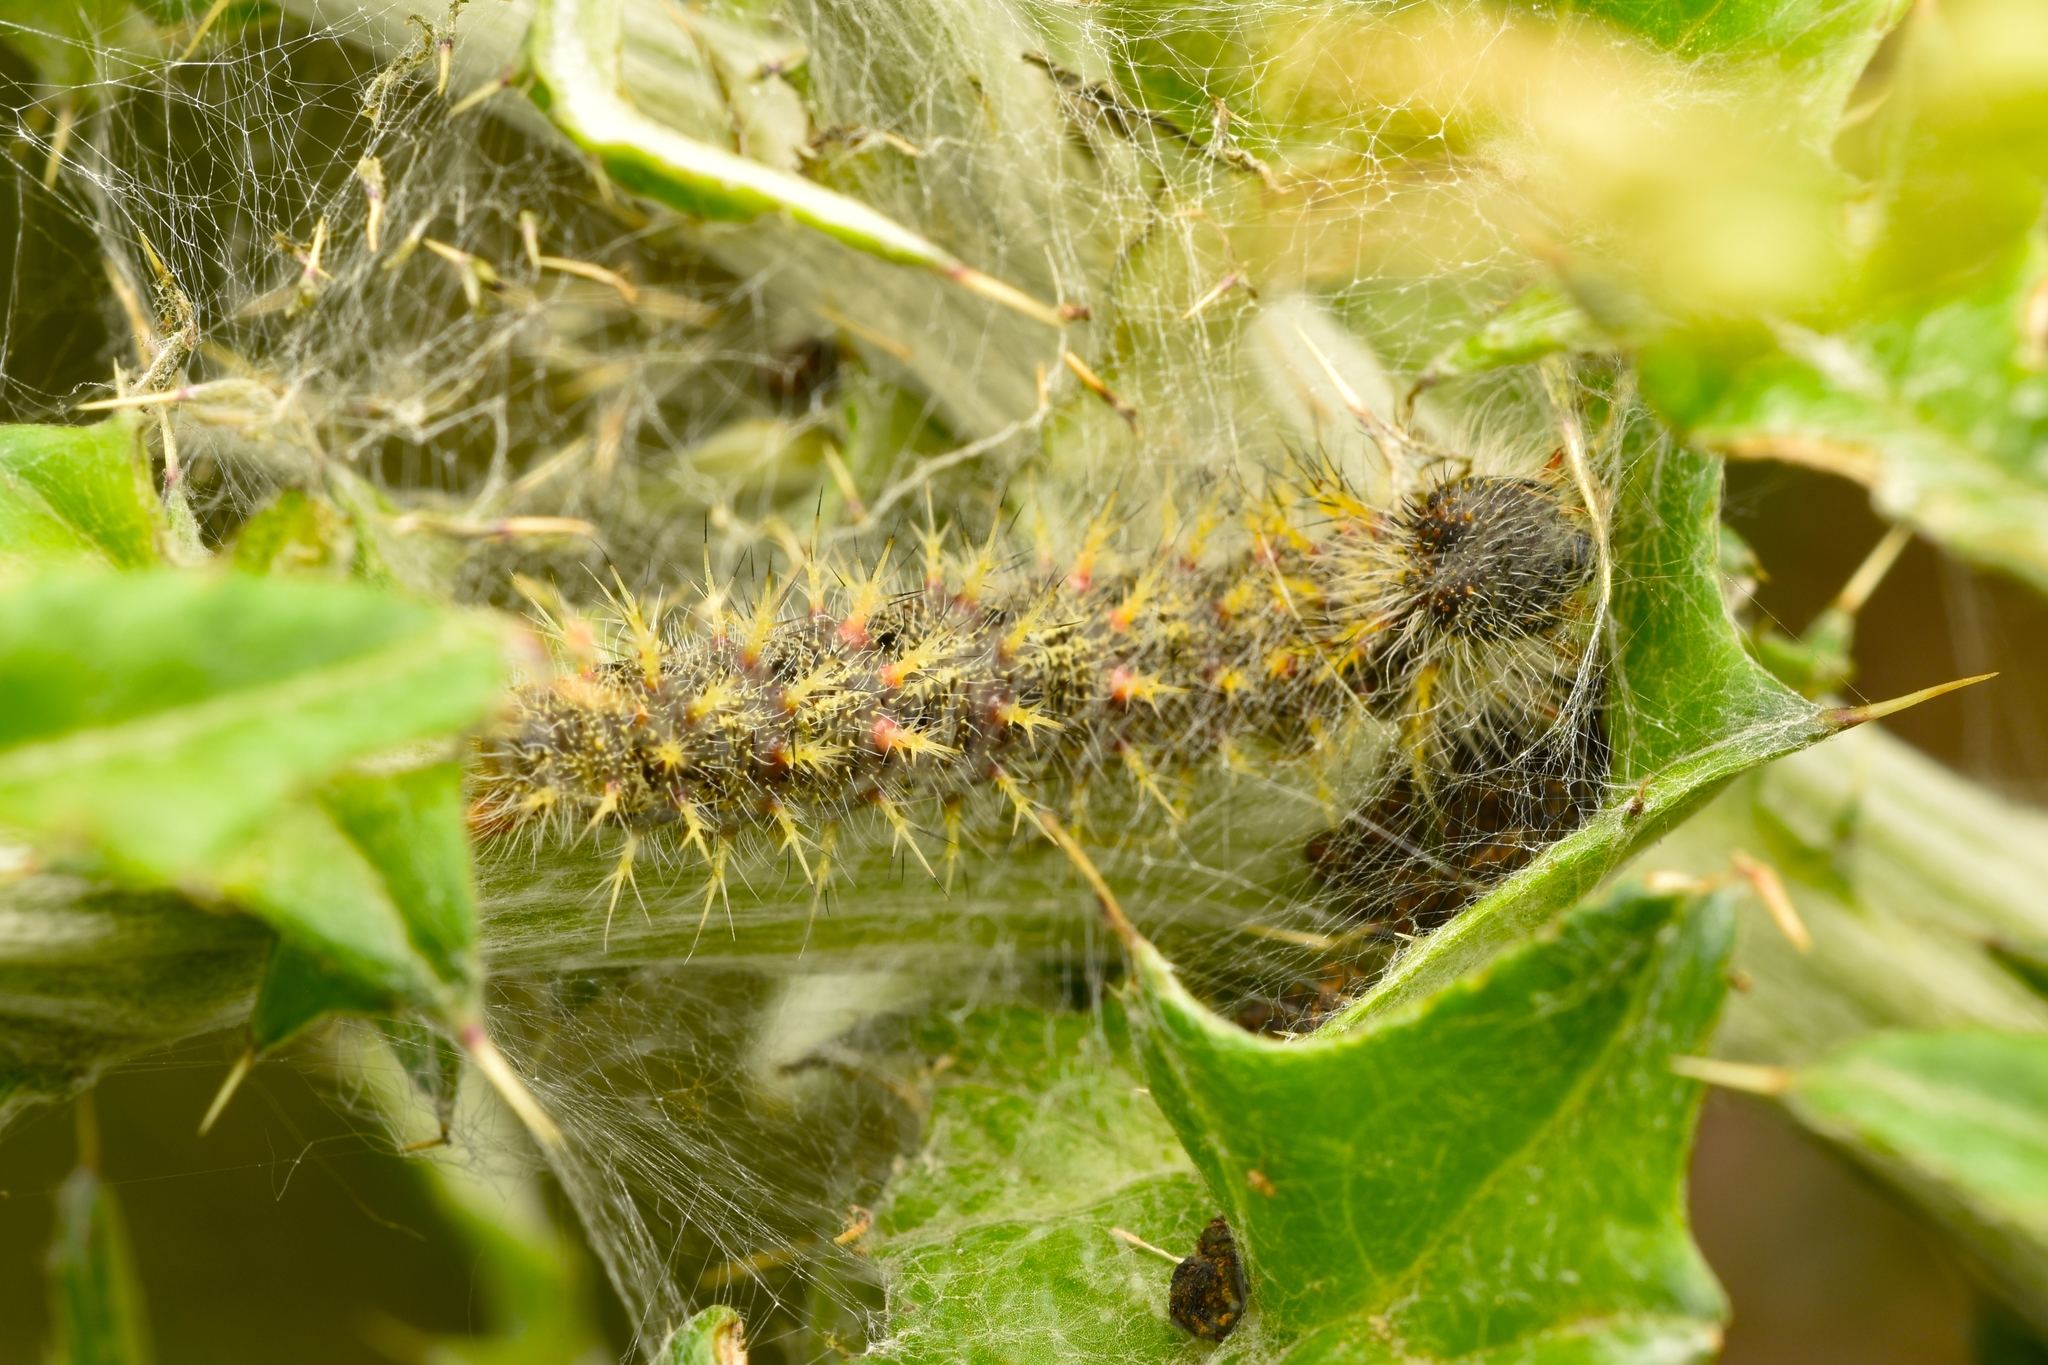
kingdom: Animalia
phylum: Arthropoda
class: Insecta
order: Lepidoptera
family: Nymphalidae
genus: Vanessa
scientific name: Vanessa cardui
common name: Painted lady
